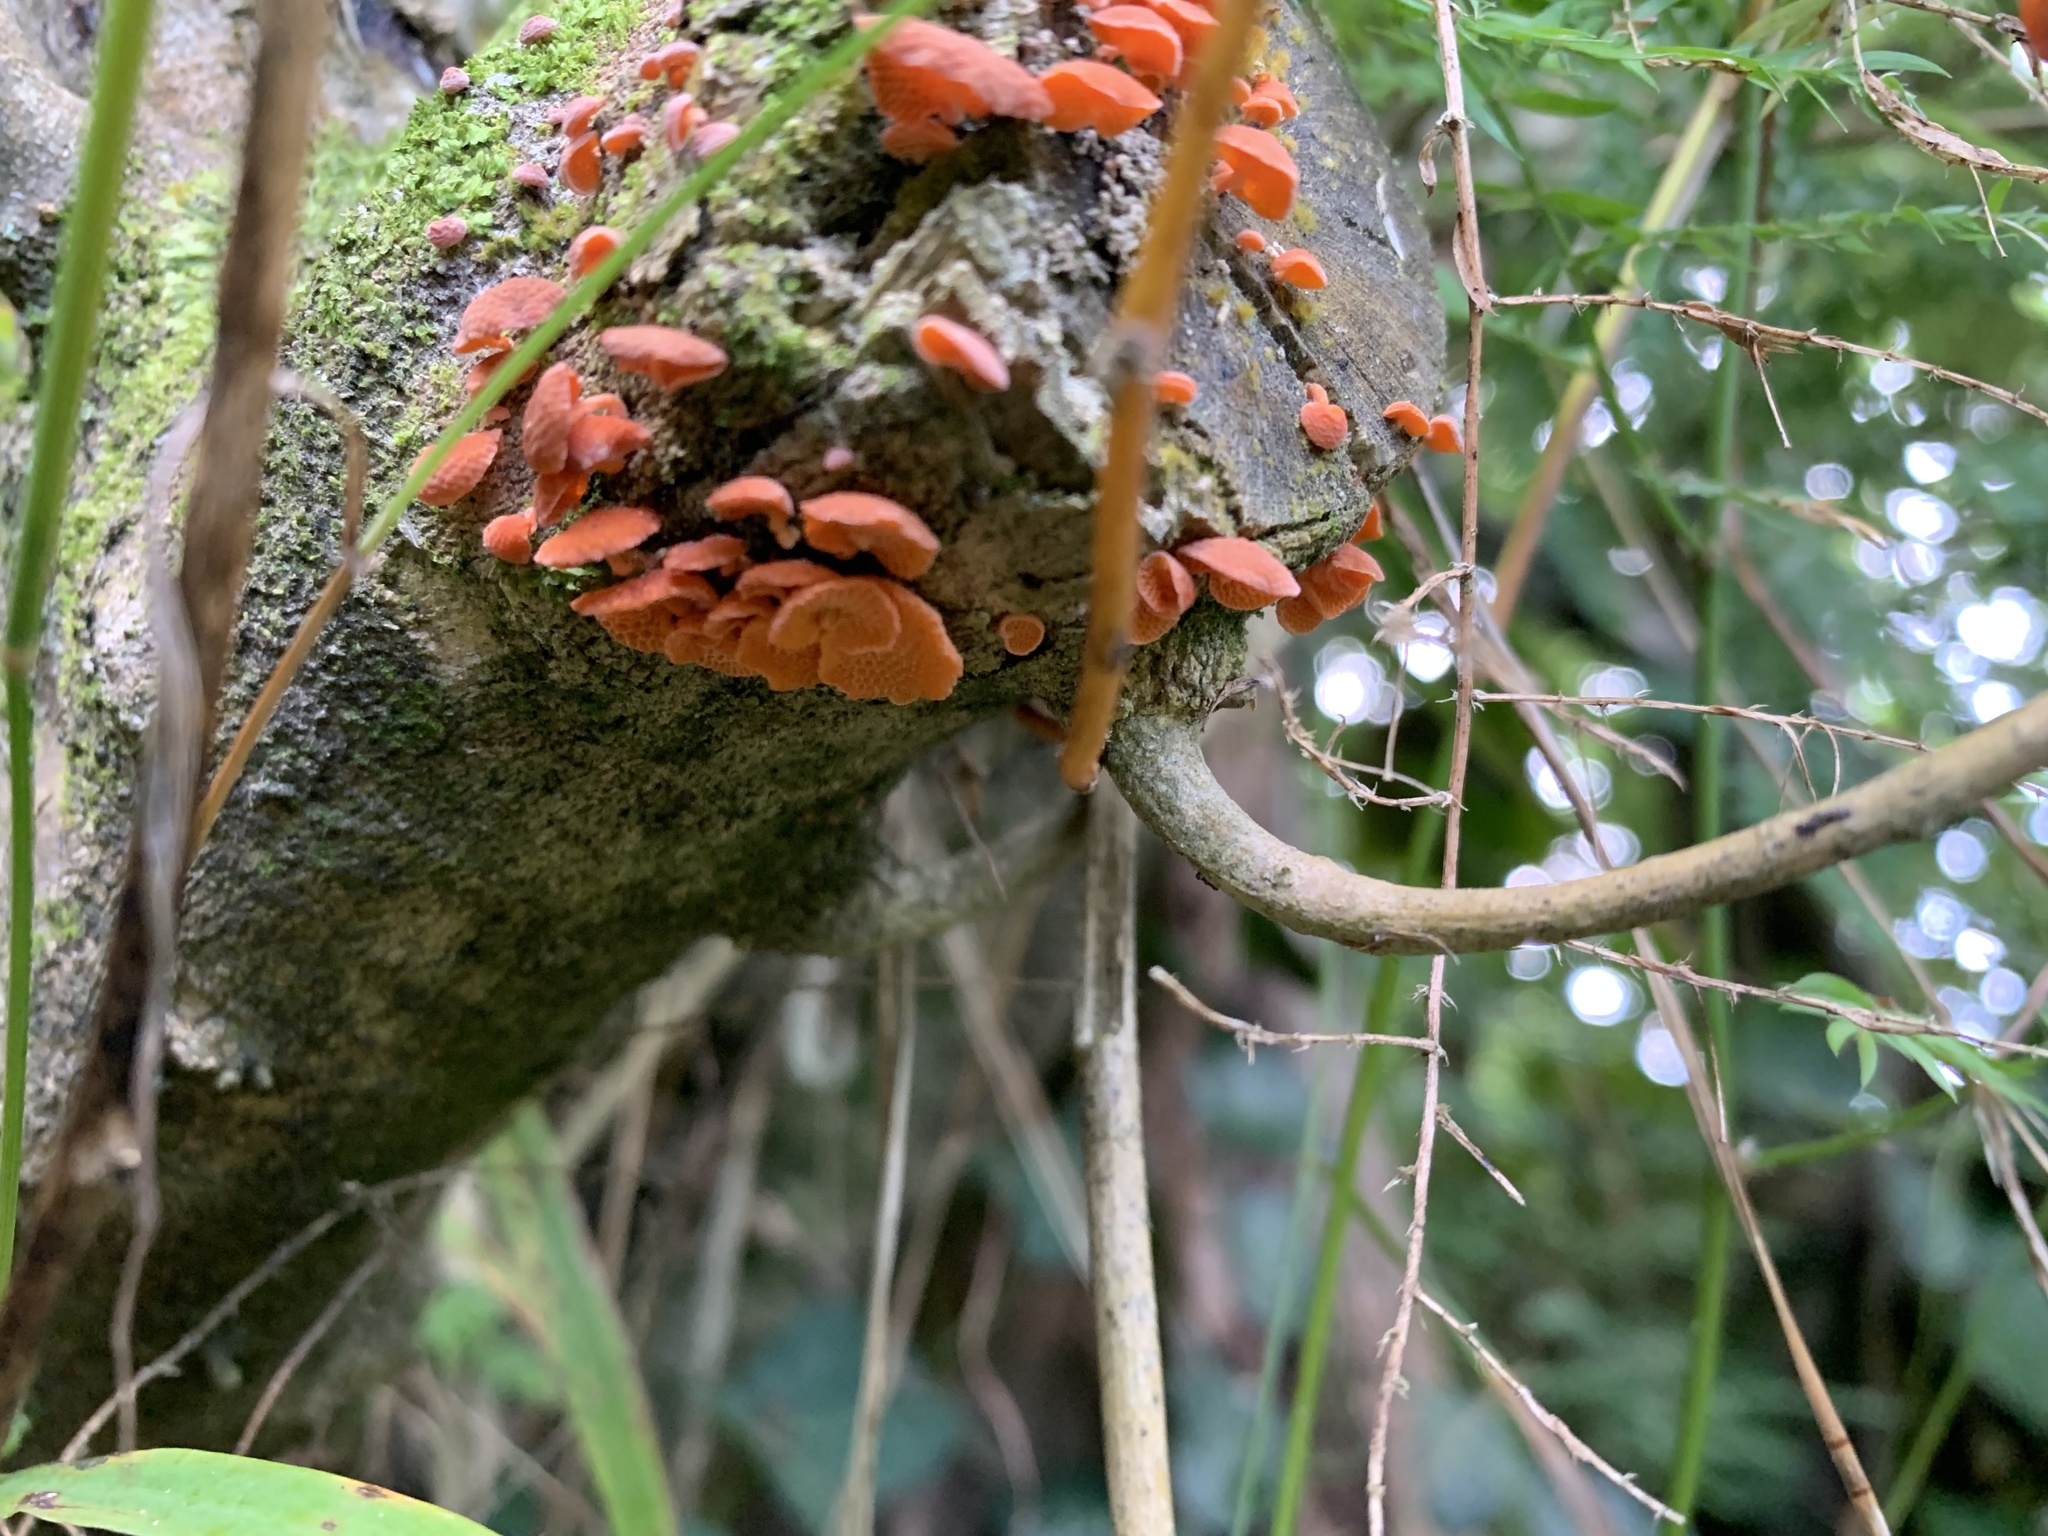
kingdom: Fungi
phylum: Basidiomycota
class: Agaricomycetes
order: Agaricales
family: Mycenaceae
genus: Favolaschia
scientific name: Favolaschia claudopus
